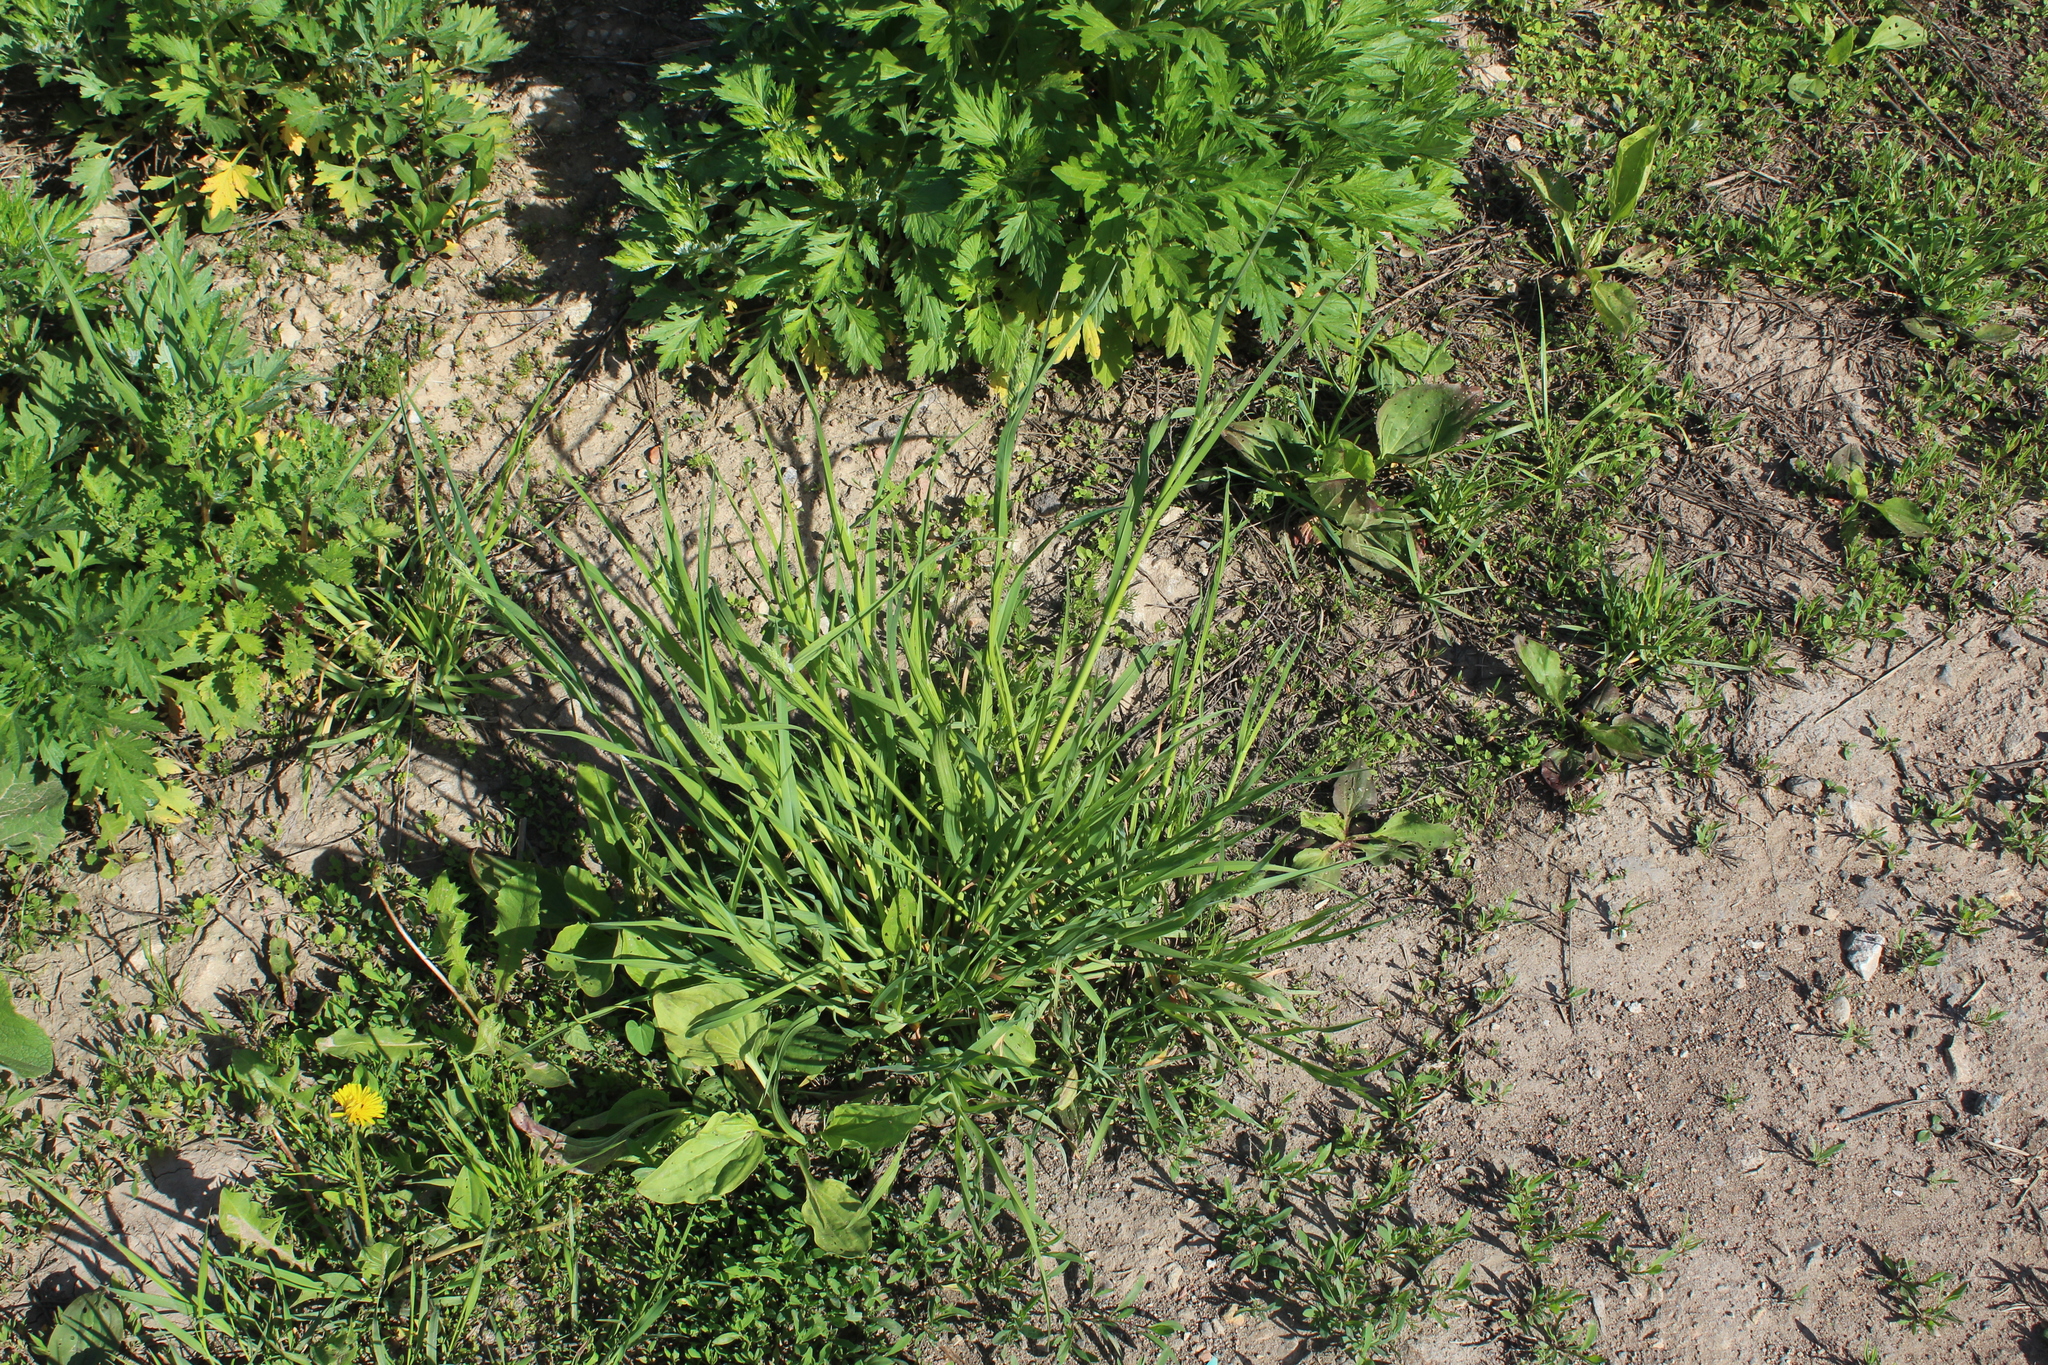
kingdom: Plantae
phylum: Tracheophyta
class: Liliopsida
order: Poales
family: Poaceae
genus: Dactylis
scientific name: Dactylis glomerata
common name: Orchardgrass
